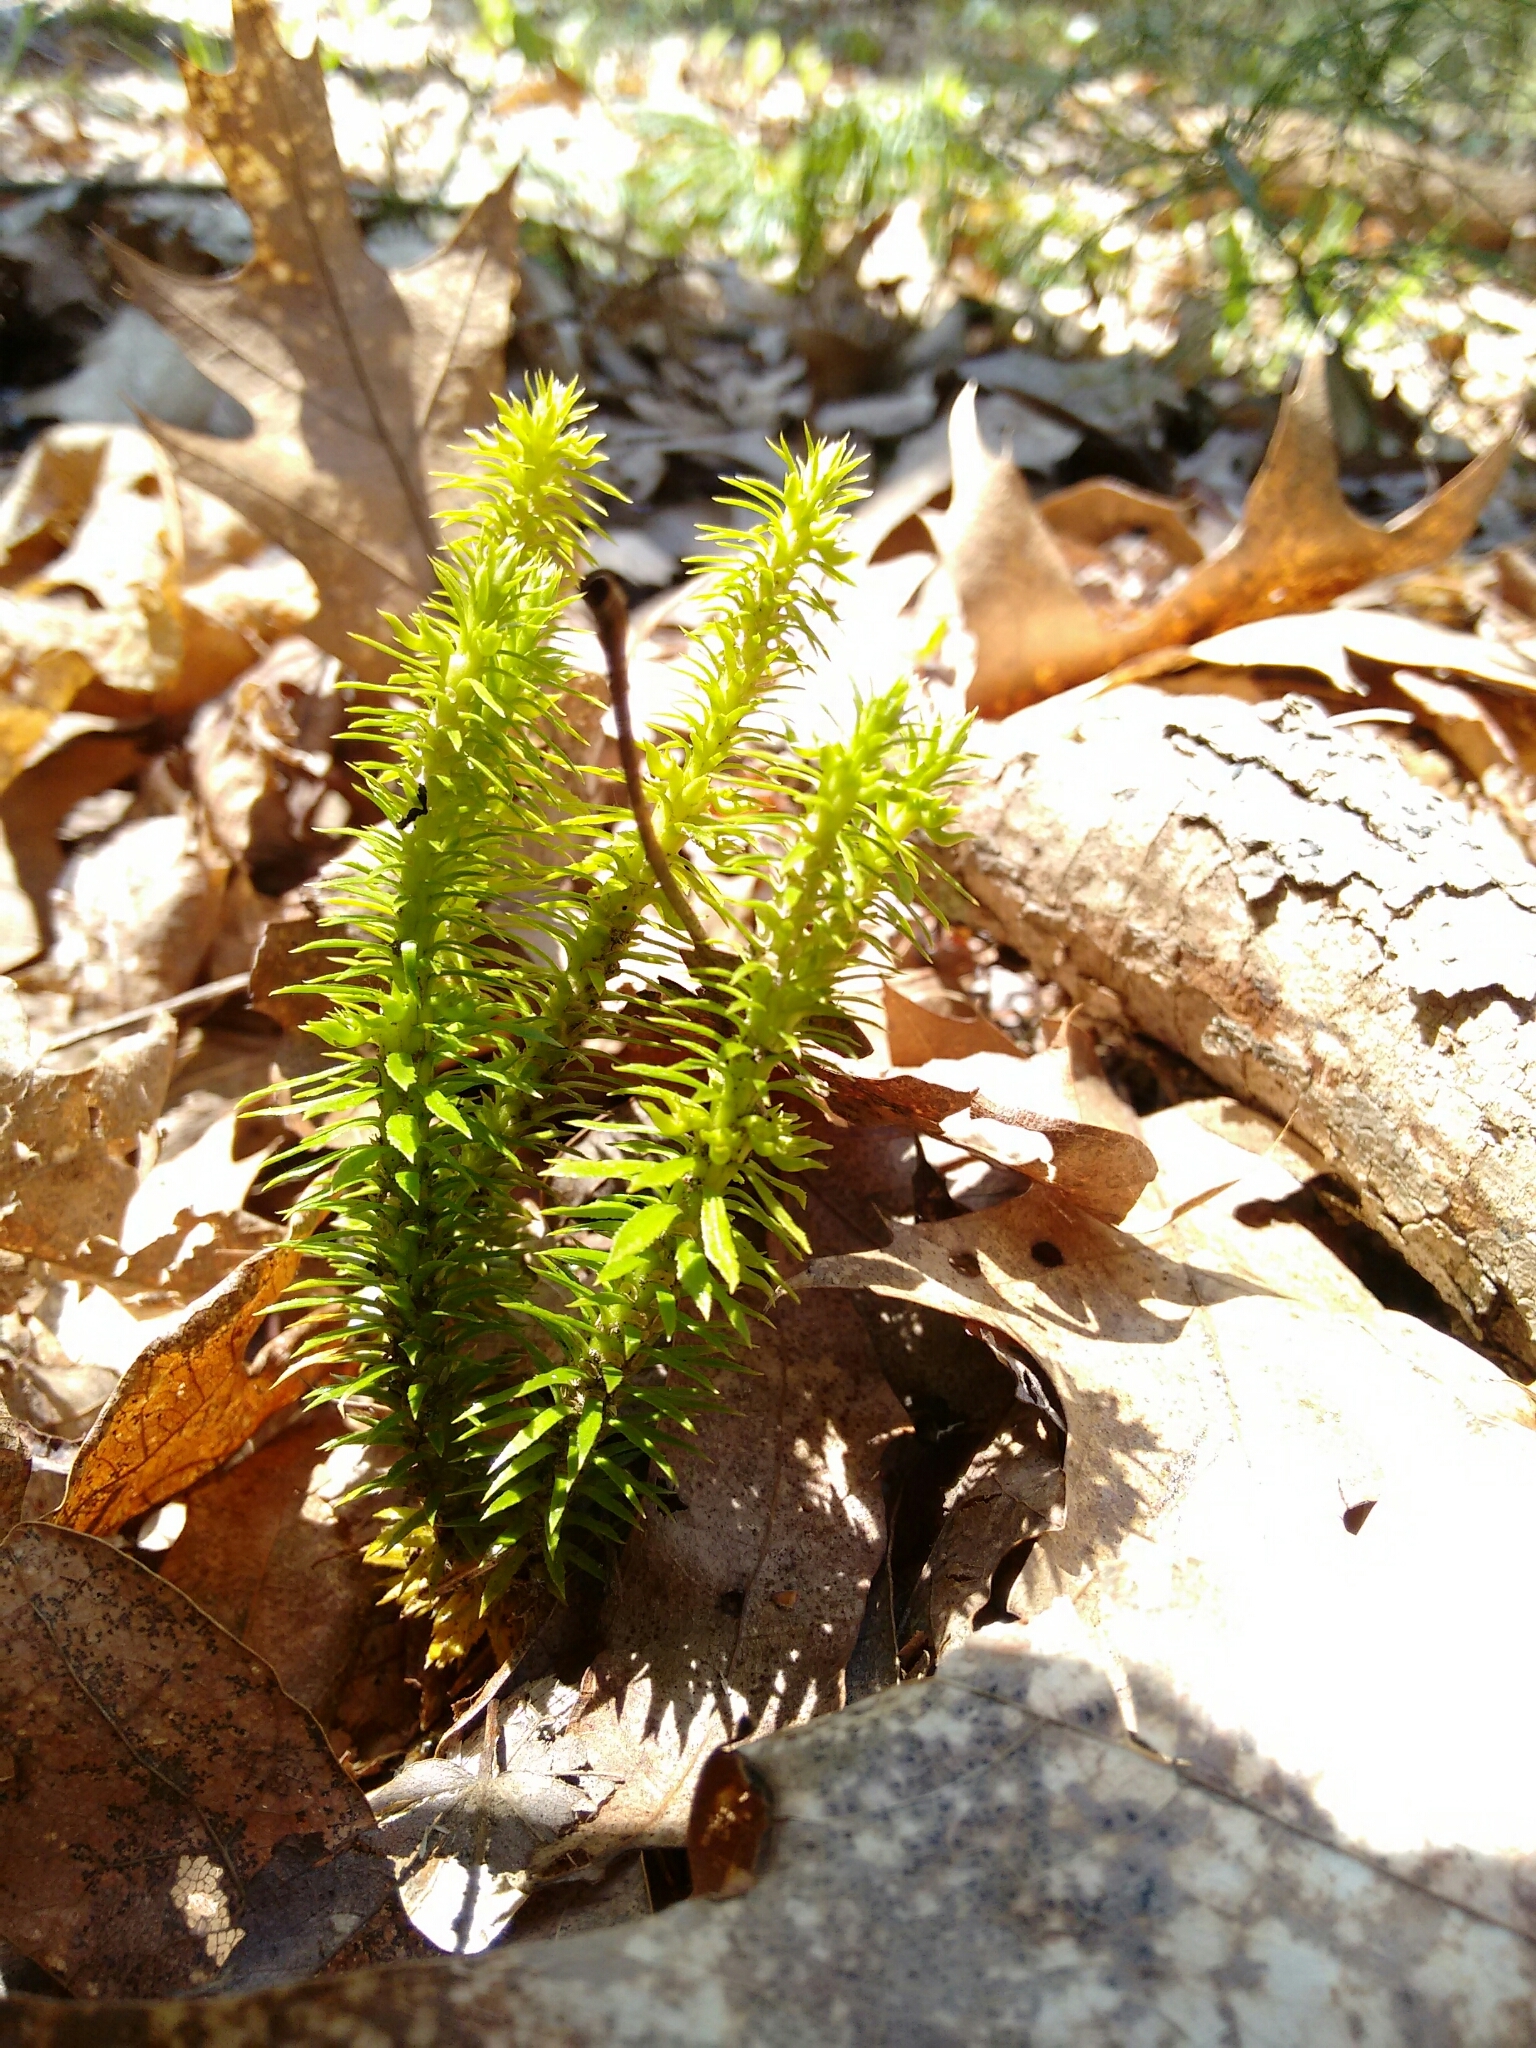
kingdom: Plantae
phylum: Tracheophyta
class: Lycopodiopsida
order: Lycopodiales
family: Lycopodiaceae
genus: Huperzia
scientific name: Huperzia lucidula
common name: Shining clubmoss
